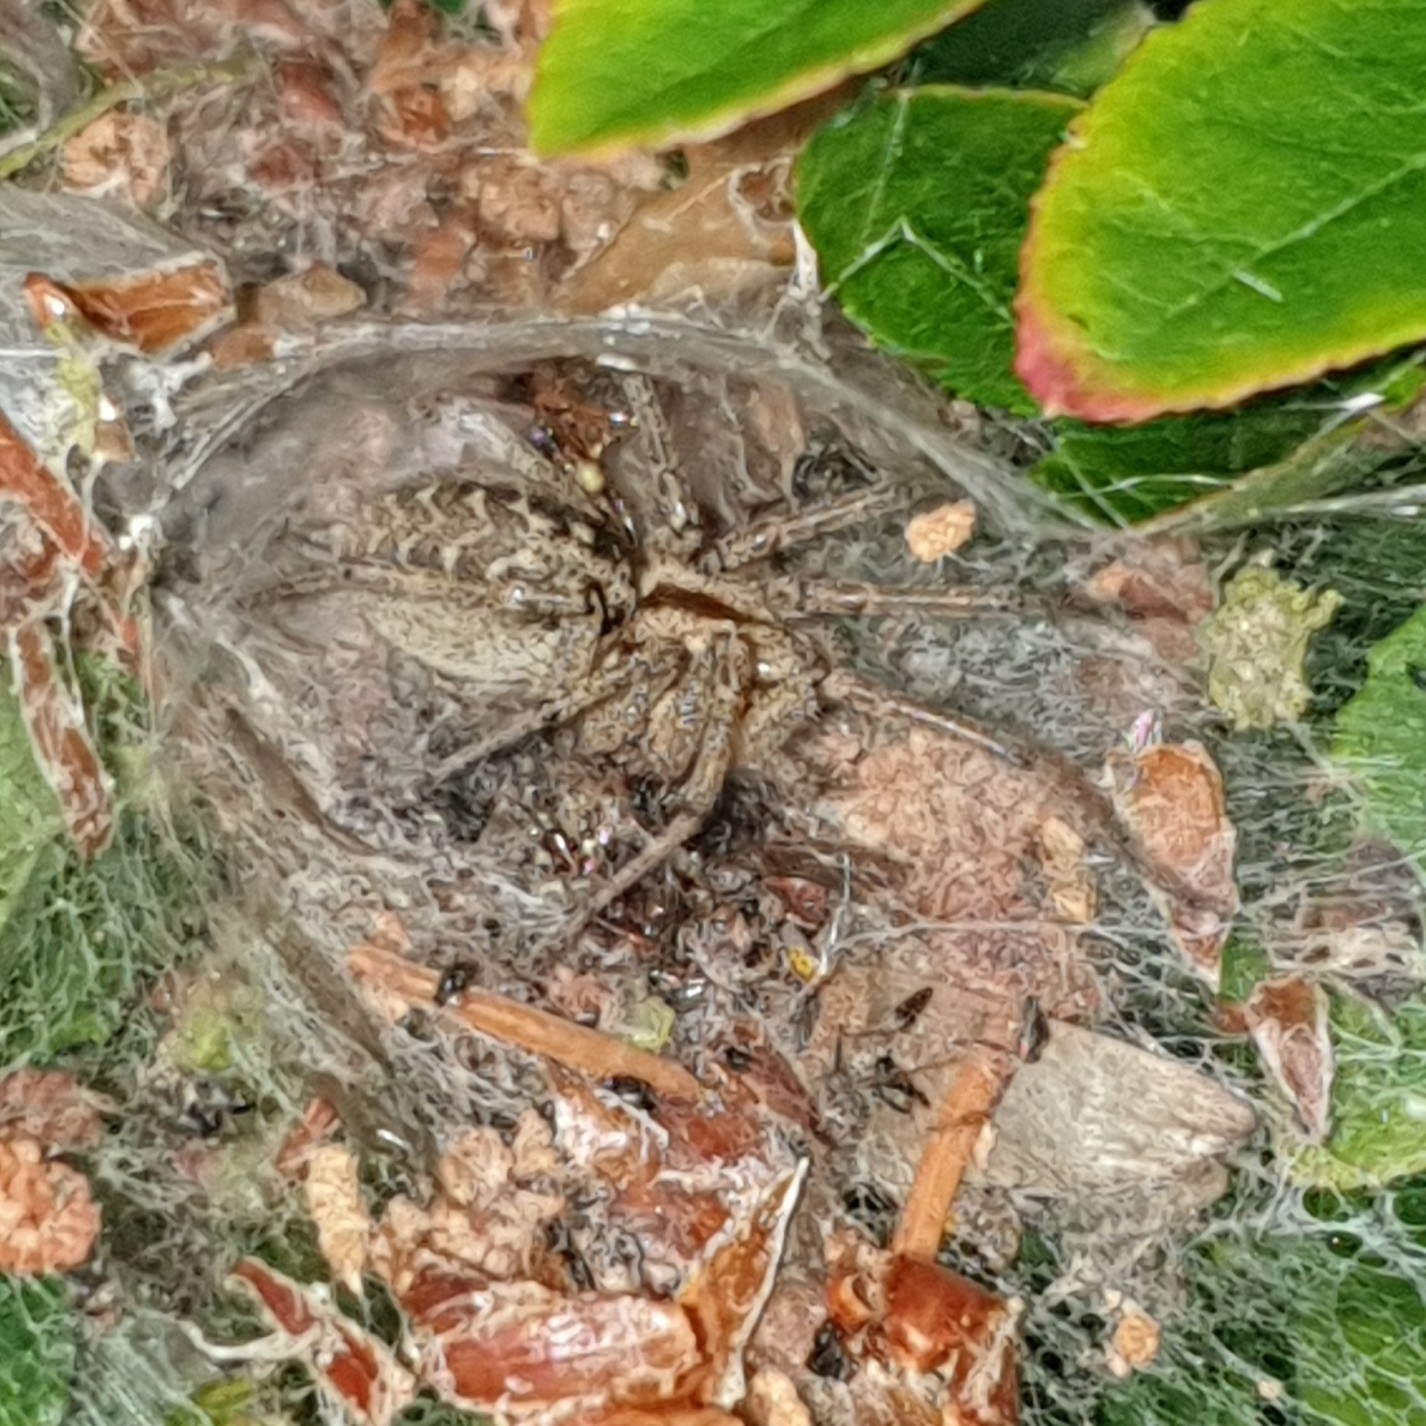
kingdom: Animalia
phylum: Arthropoda
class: Arachnida
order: Araneae
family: Agelenidae
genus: Agelena
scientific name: Agelena labyrinthica
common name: Labyrinth spider
